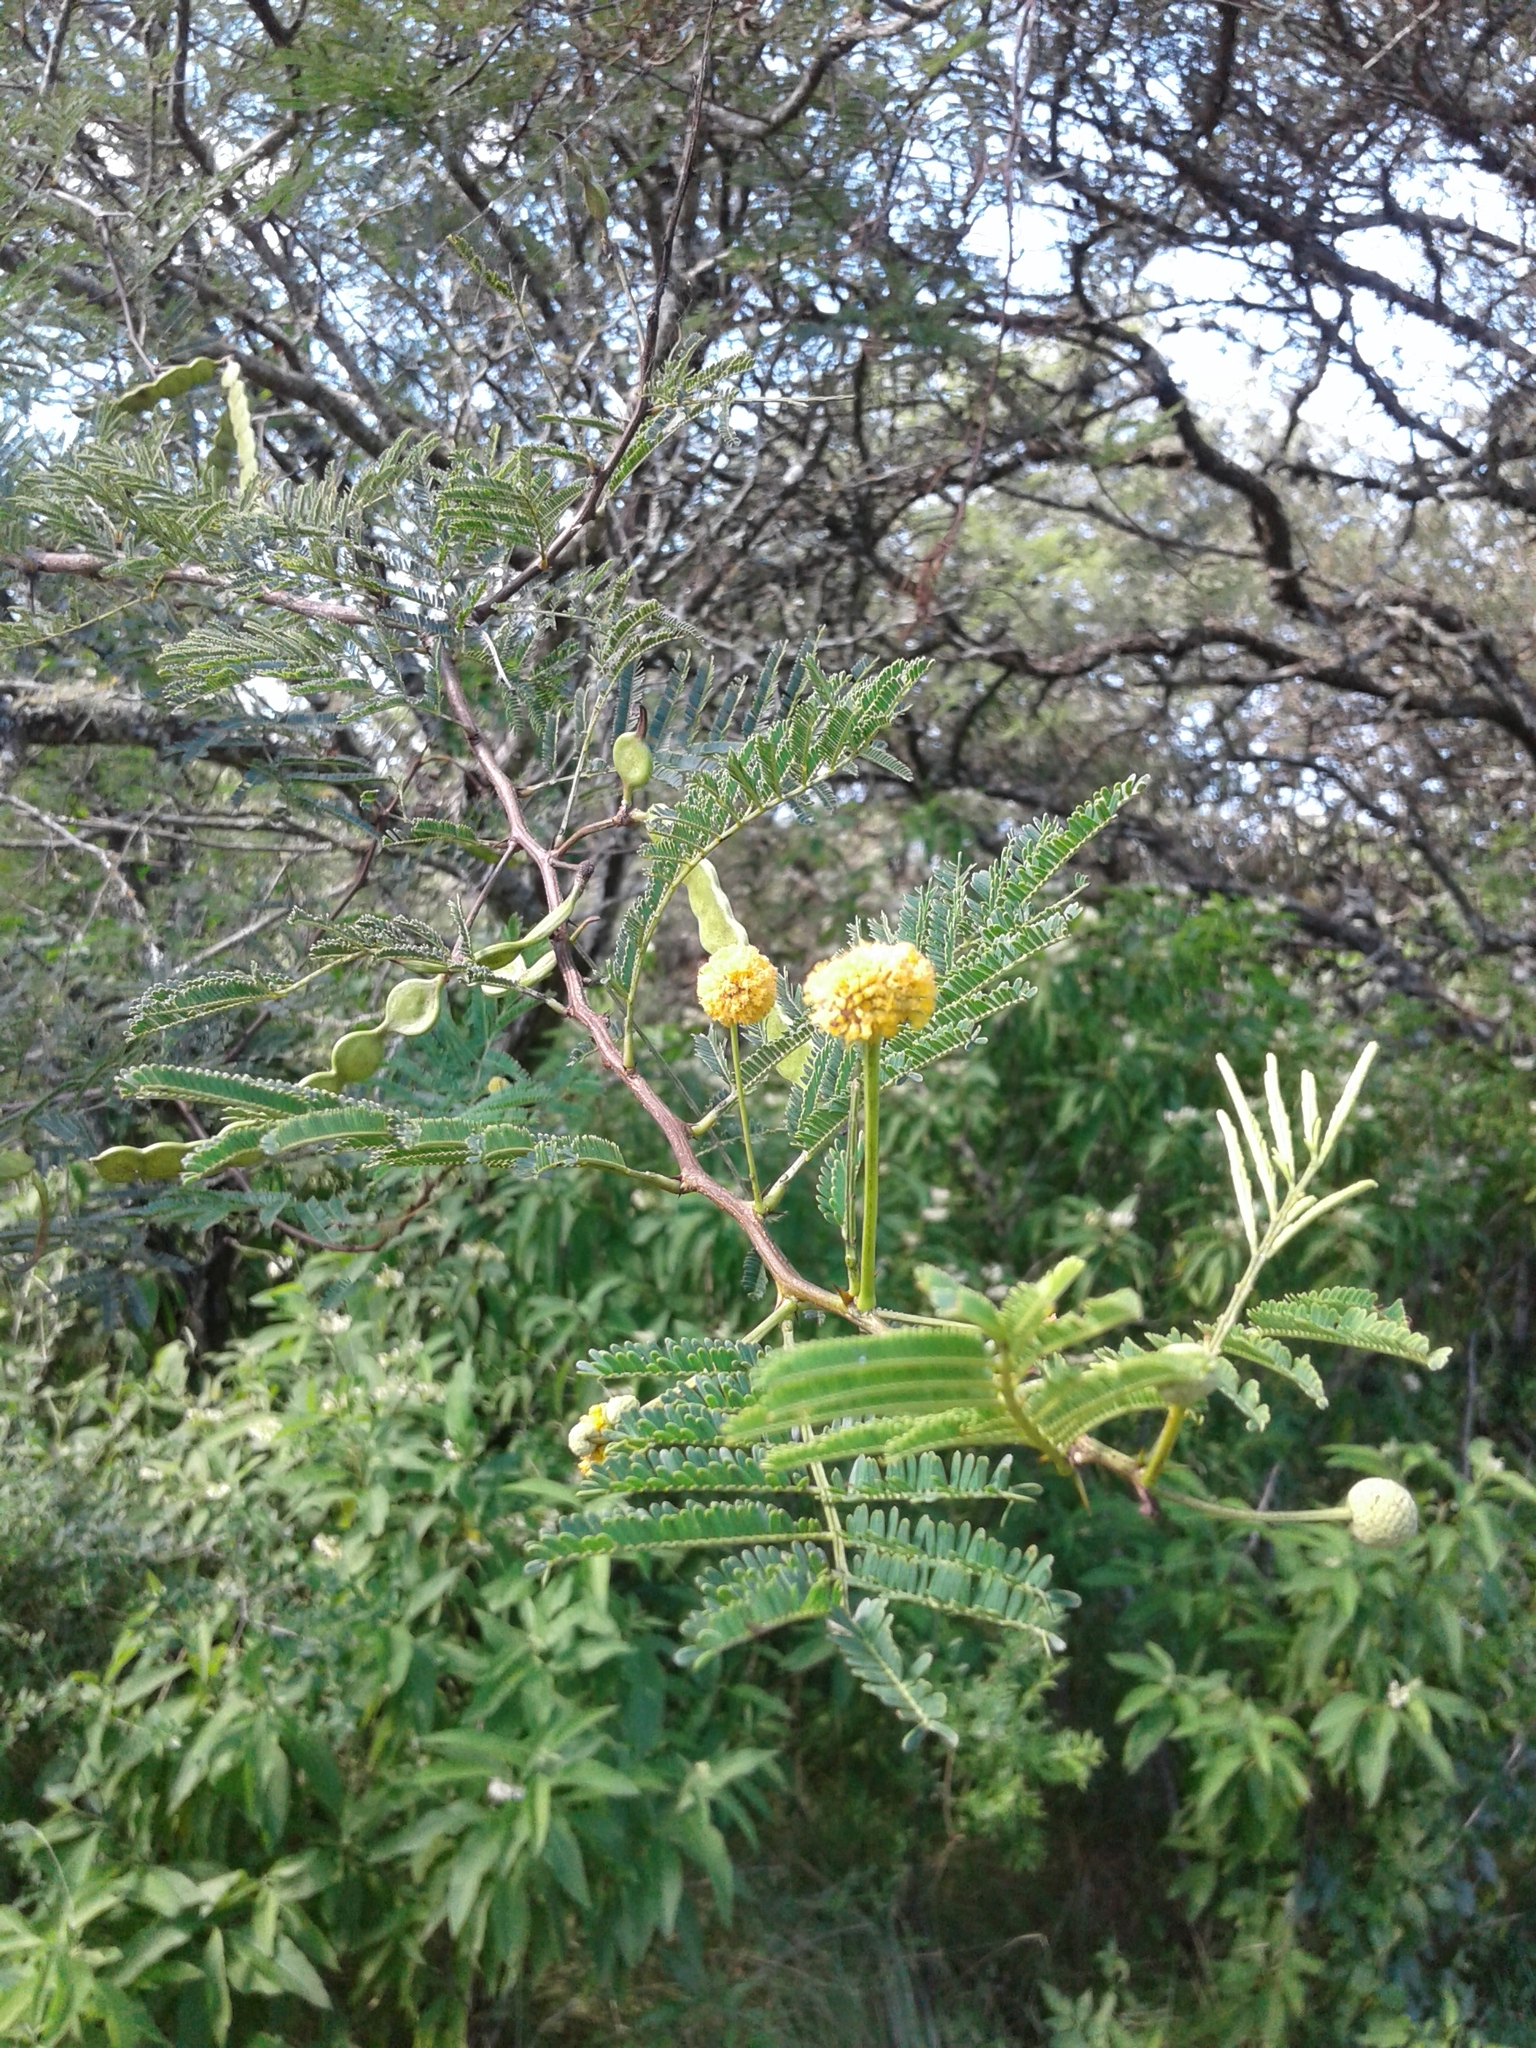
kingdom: Plantae
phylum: Tracheophyta
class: Magnoliopsida
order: Fabales
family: Fabaceae
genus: Vachellia
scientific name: Vachellia aroma
